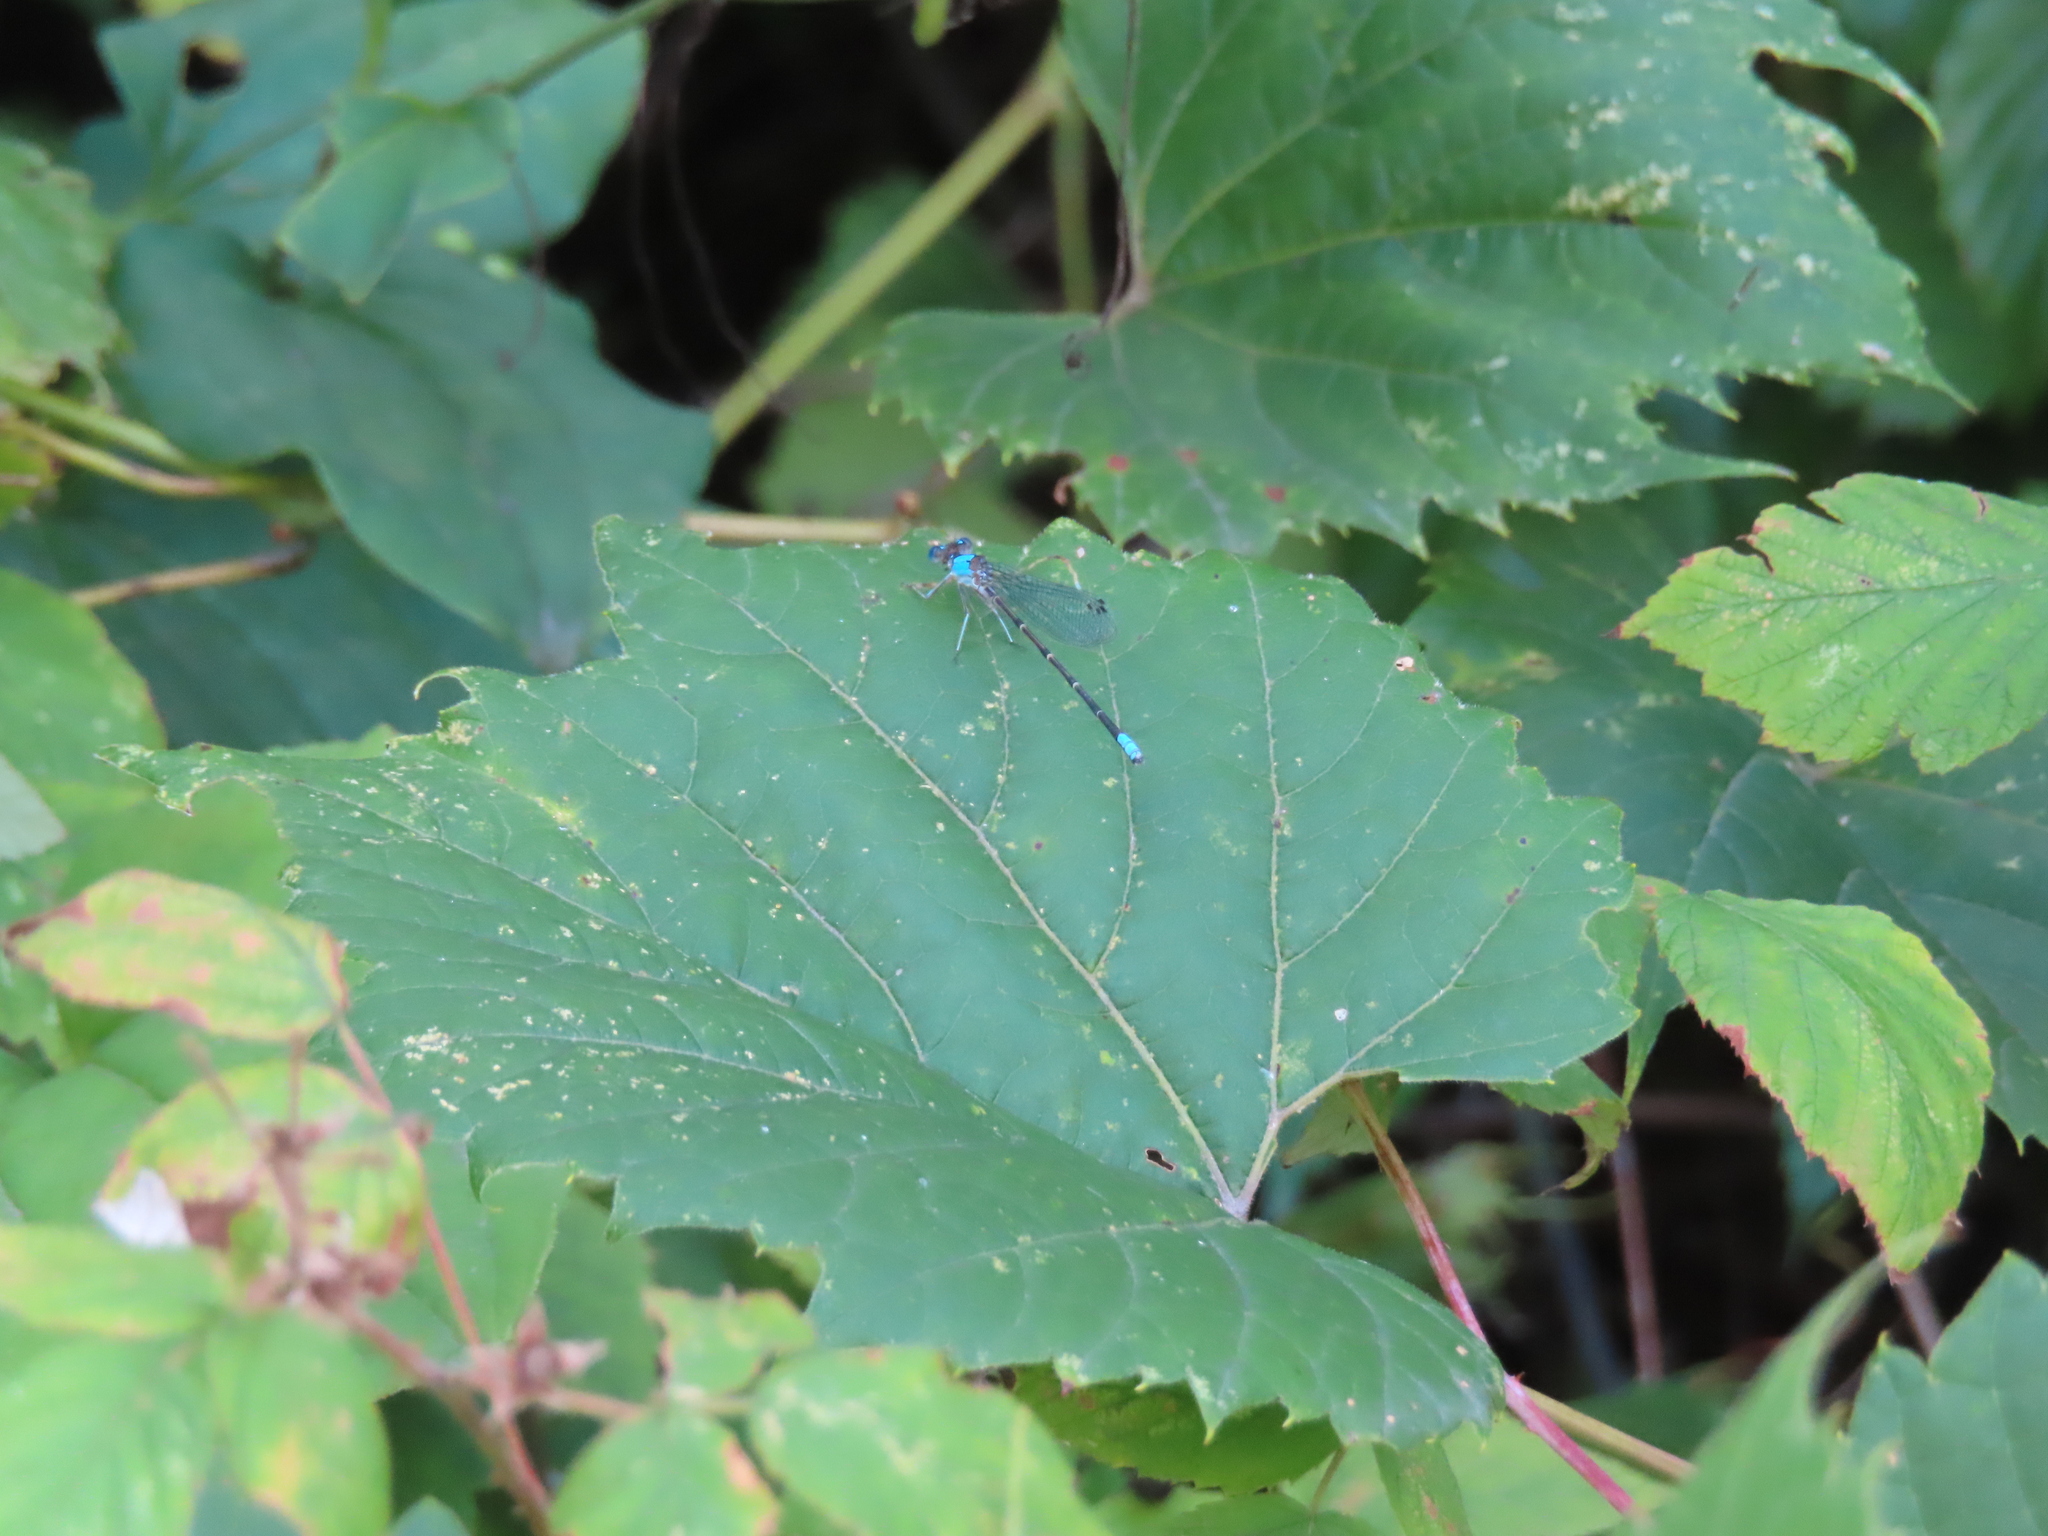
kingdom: Animalia
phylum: Arthropoda
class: Insecta
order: Odonata
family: Coenagrionidae
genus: Argia
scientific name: Argia apicalis
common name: Blue-fronted dancer
